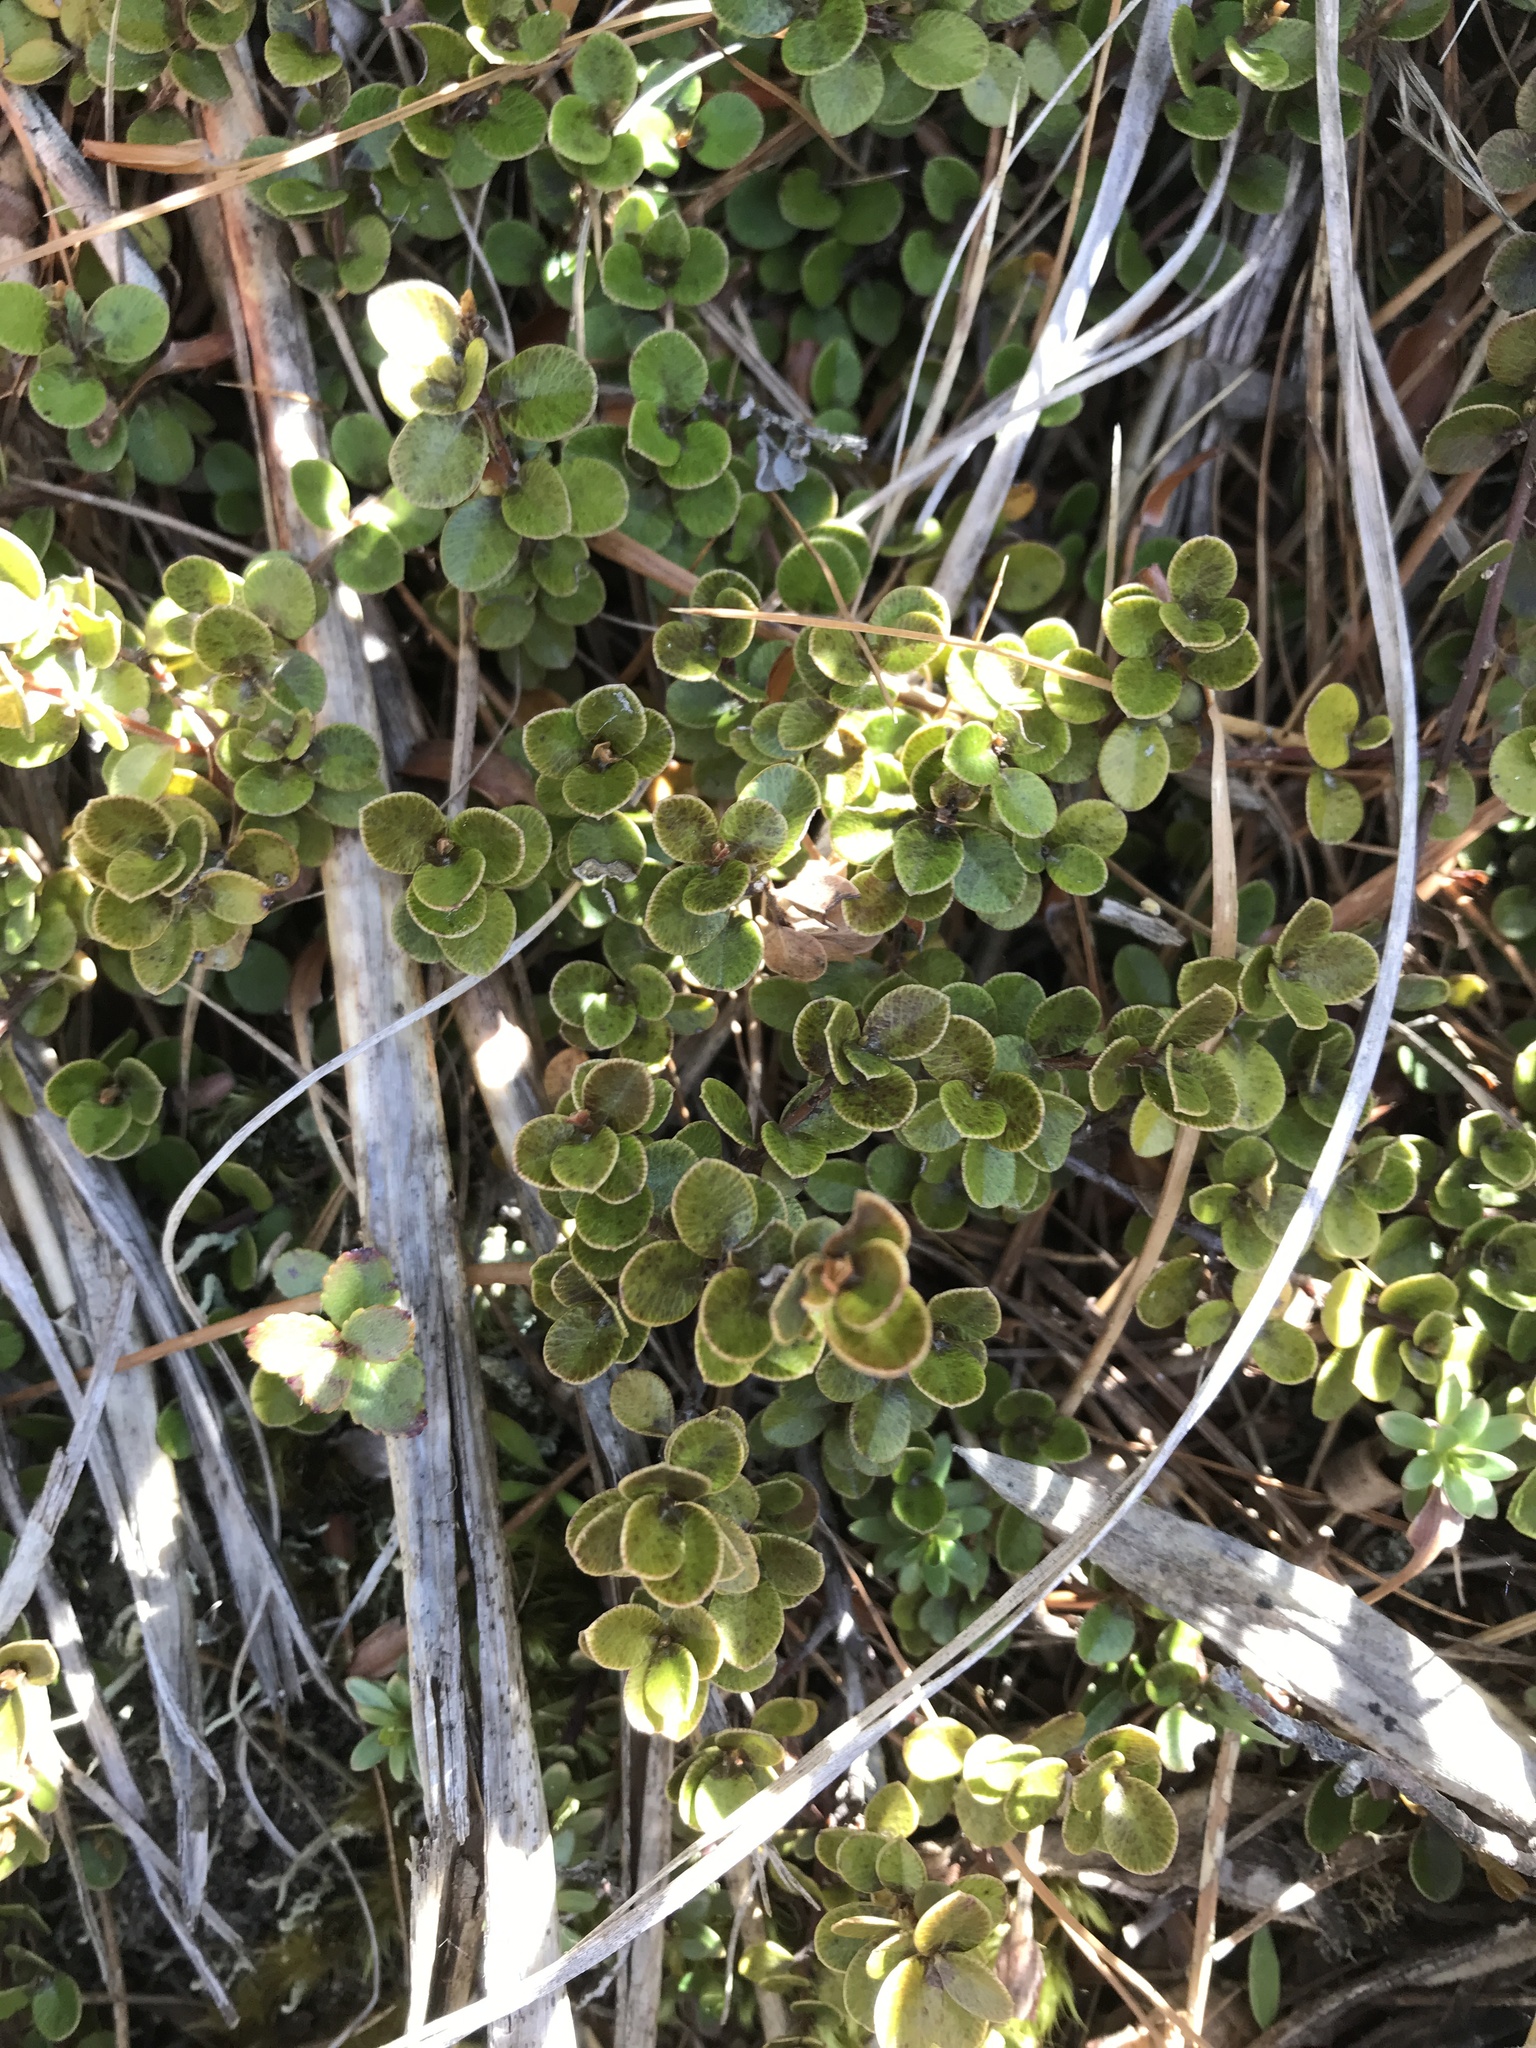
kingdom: Plantae
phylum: Tracheophyta
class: Magnoliopsida
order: Ericales
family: Primulaceae
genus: Myrsine
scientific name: Myrsine nummularia
